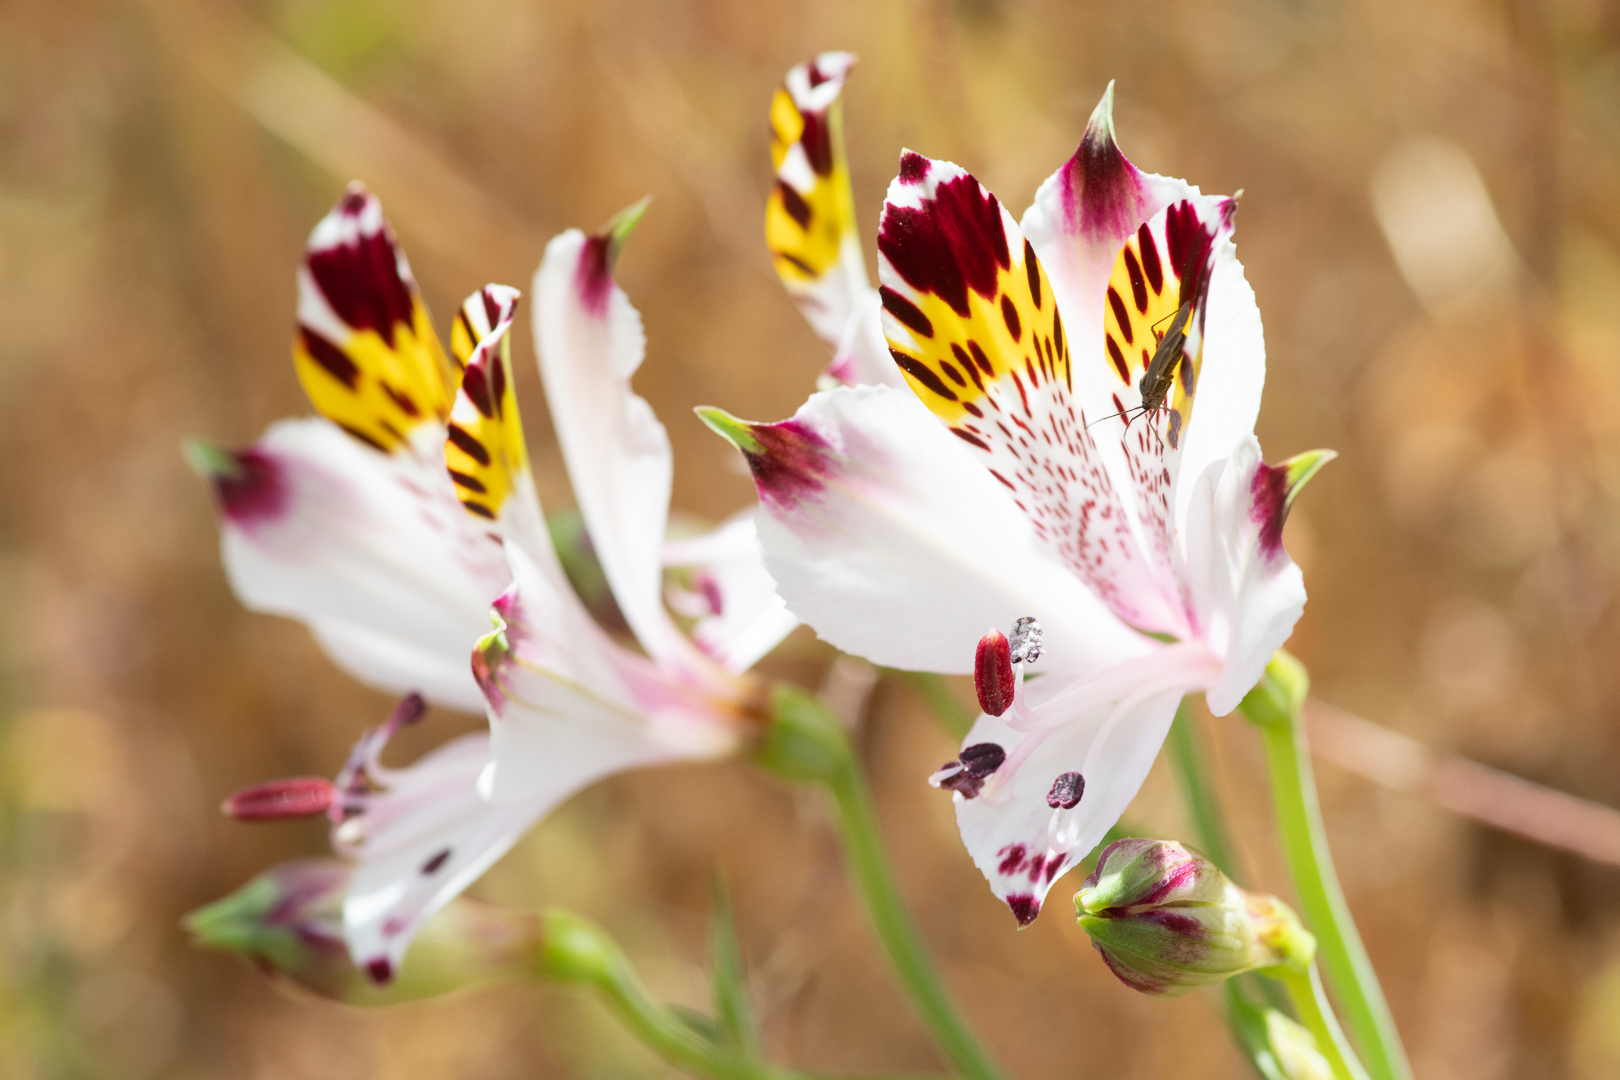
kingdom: Plantae
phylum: Tracheophyta
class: Liliopsida
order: Liliales
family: Alstroemeriaceae
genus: Alstroemeria
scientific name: Alstroemeria pulchra
